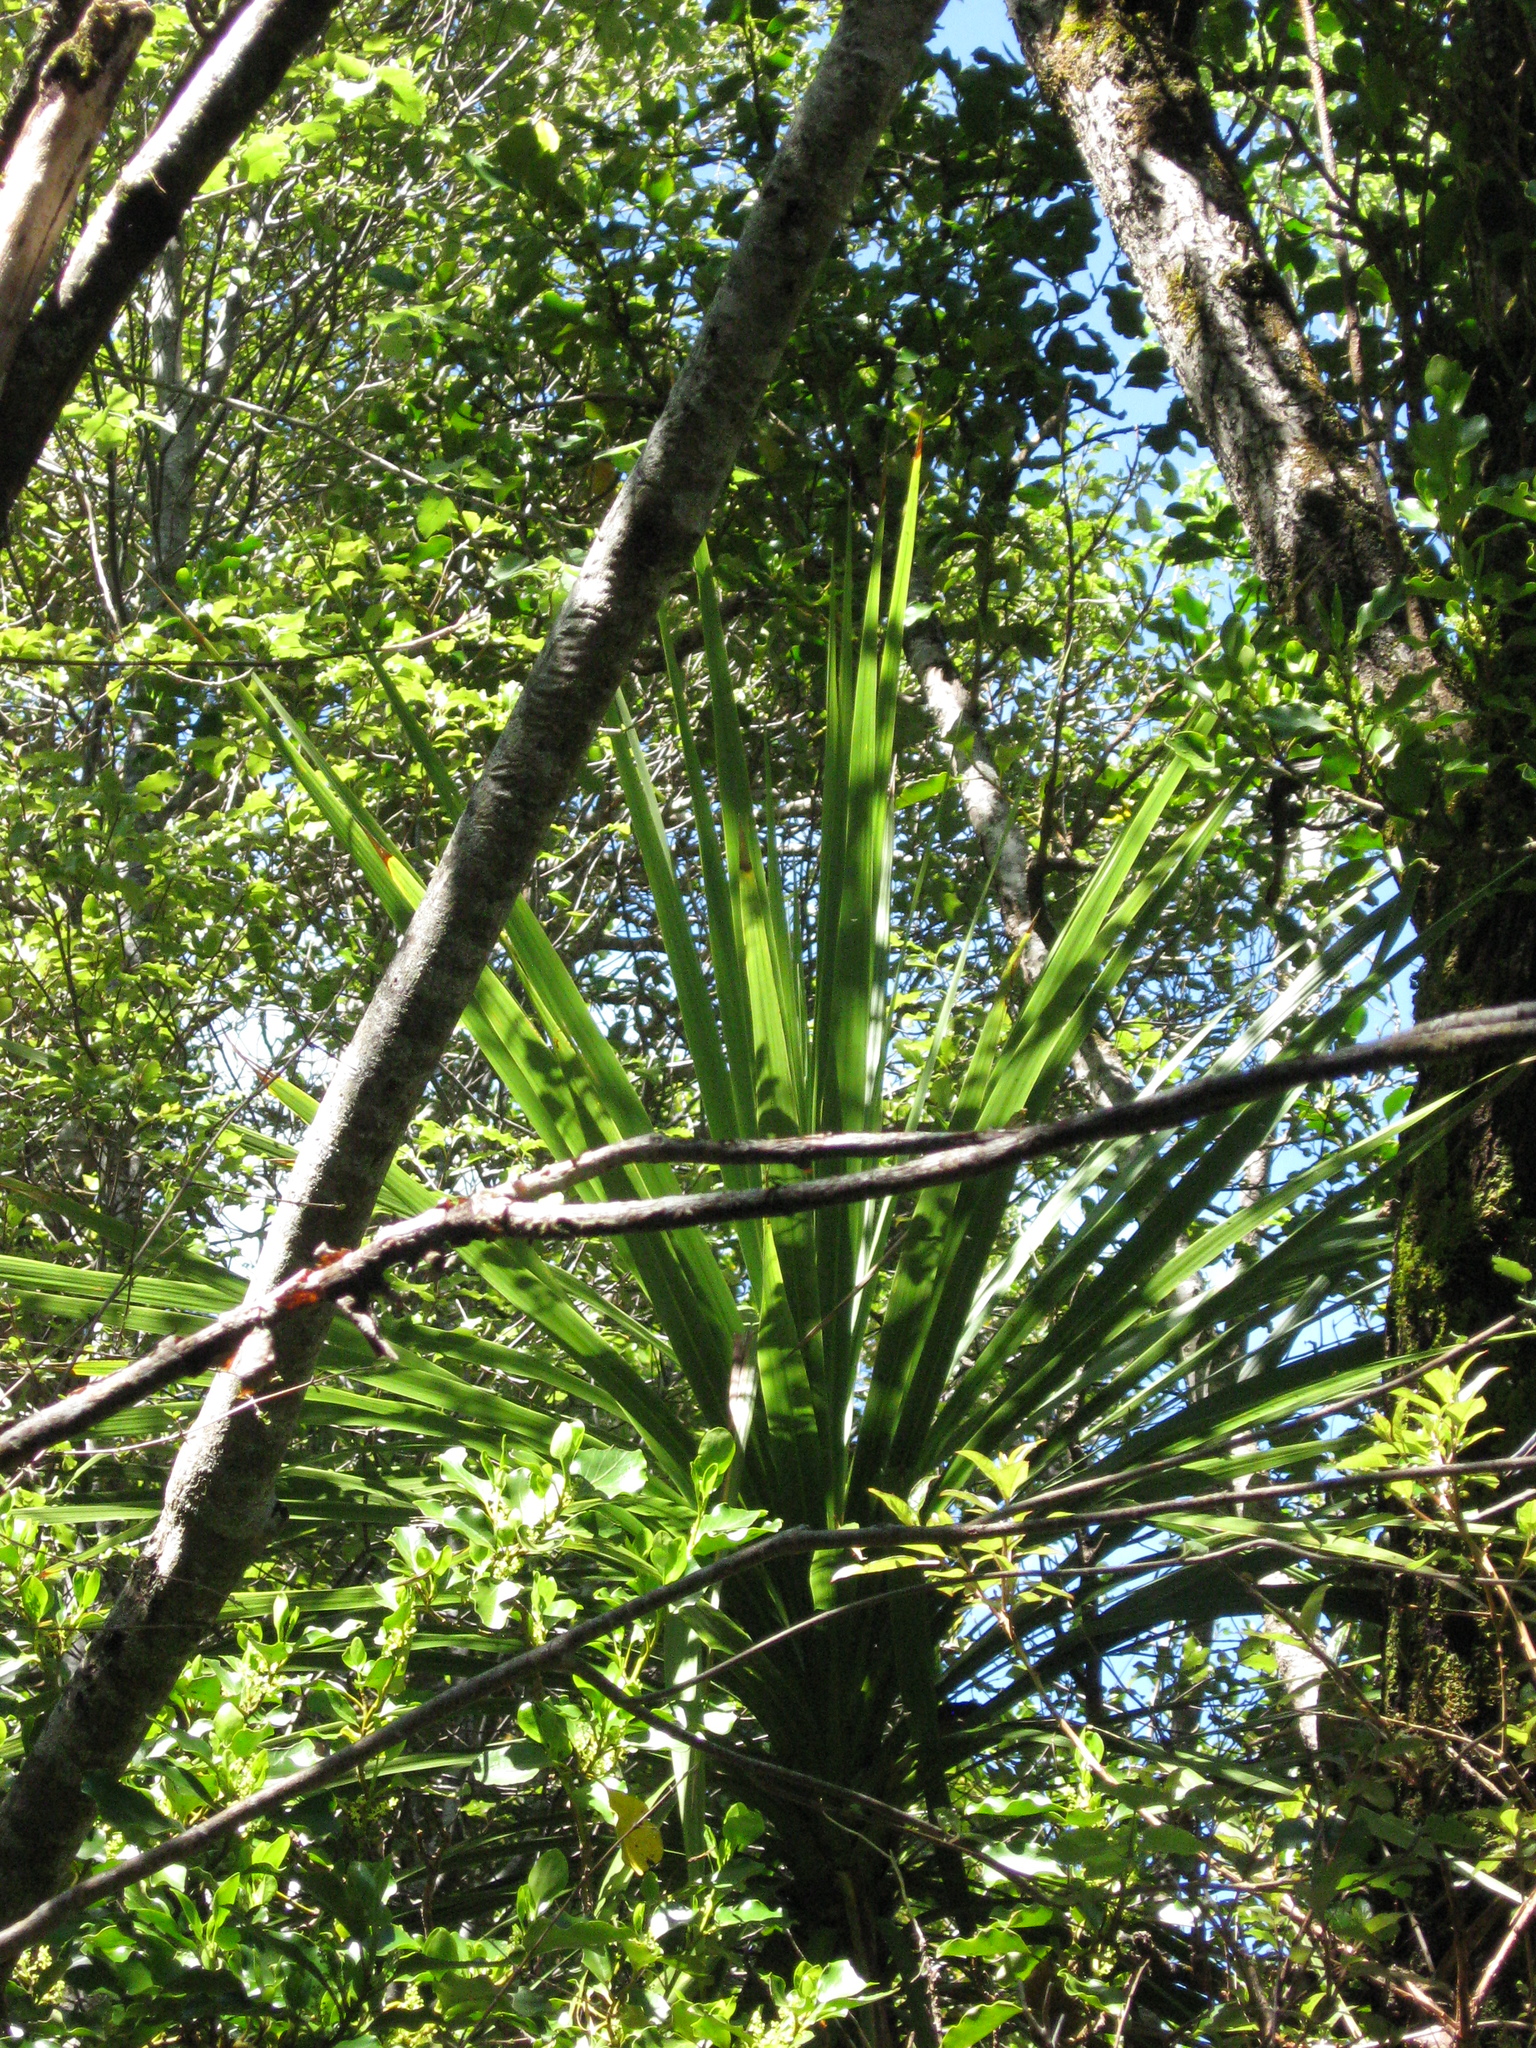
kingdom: Plantae
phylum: Tracheophyta
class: Liliopsida
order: Asparagales
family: Asparagaceae
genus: Cordyline
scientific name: Cordyline australis
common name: Cabbage-palm
